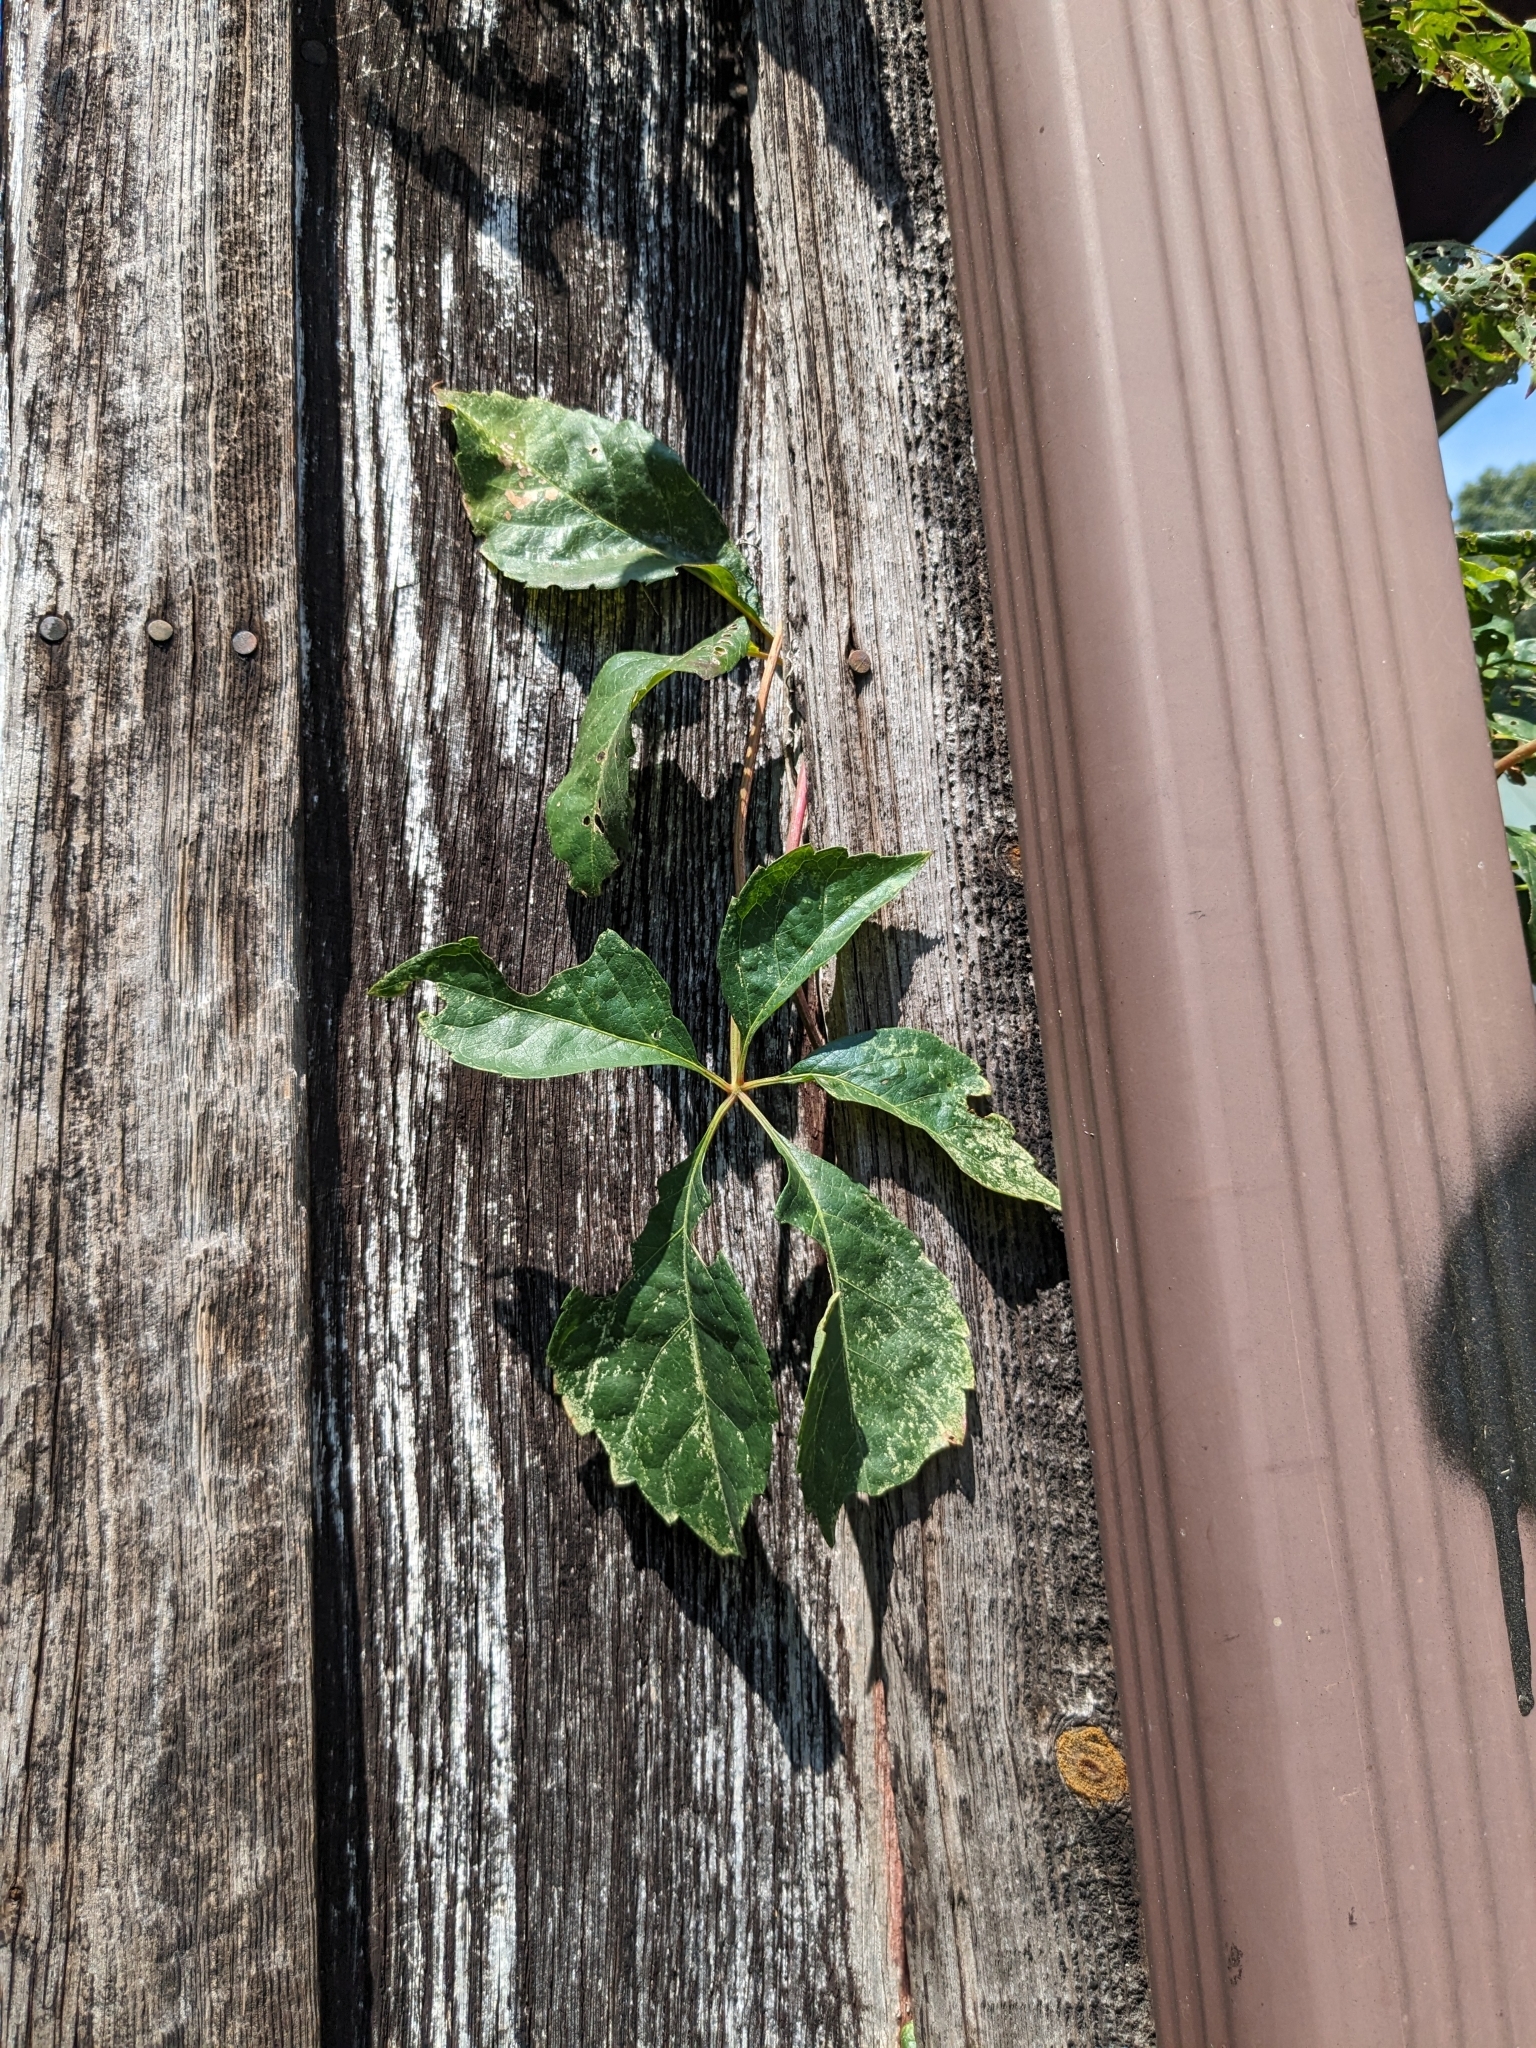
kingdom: Plantae
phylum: Tracheophyta
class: Magnoliopsida
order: Vitales
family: Vitaceae
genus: Parthenocissus
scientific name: Parthenocissus quinquefolia
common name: Virginia-creeper
